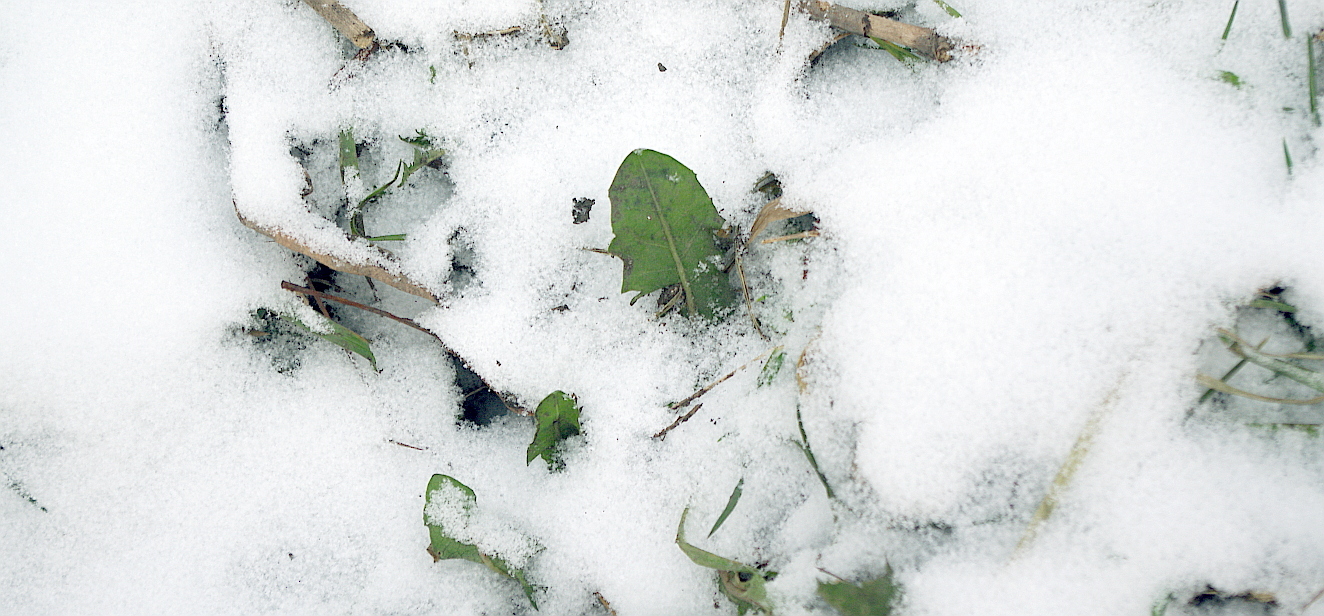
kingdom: Plantae
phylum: Tracheophyta
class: Magnoliopsida
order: Asterales
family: Asteraceae
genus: Taraxacum
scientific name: Taraxacum officinale
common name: Common dandelion
